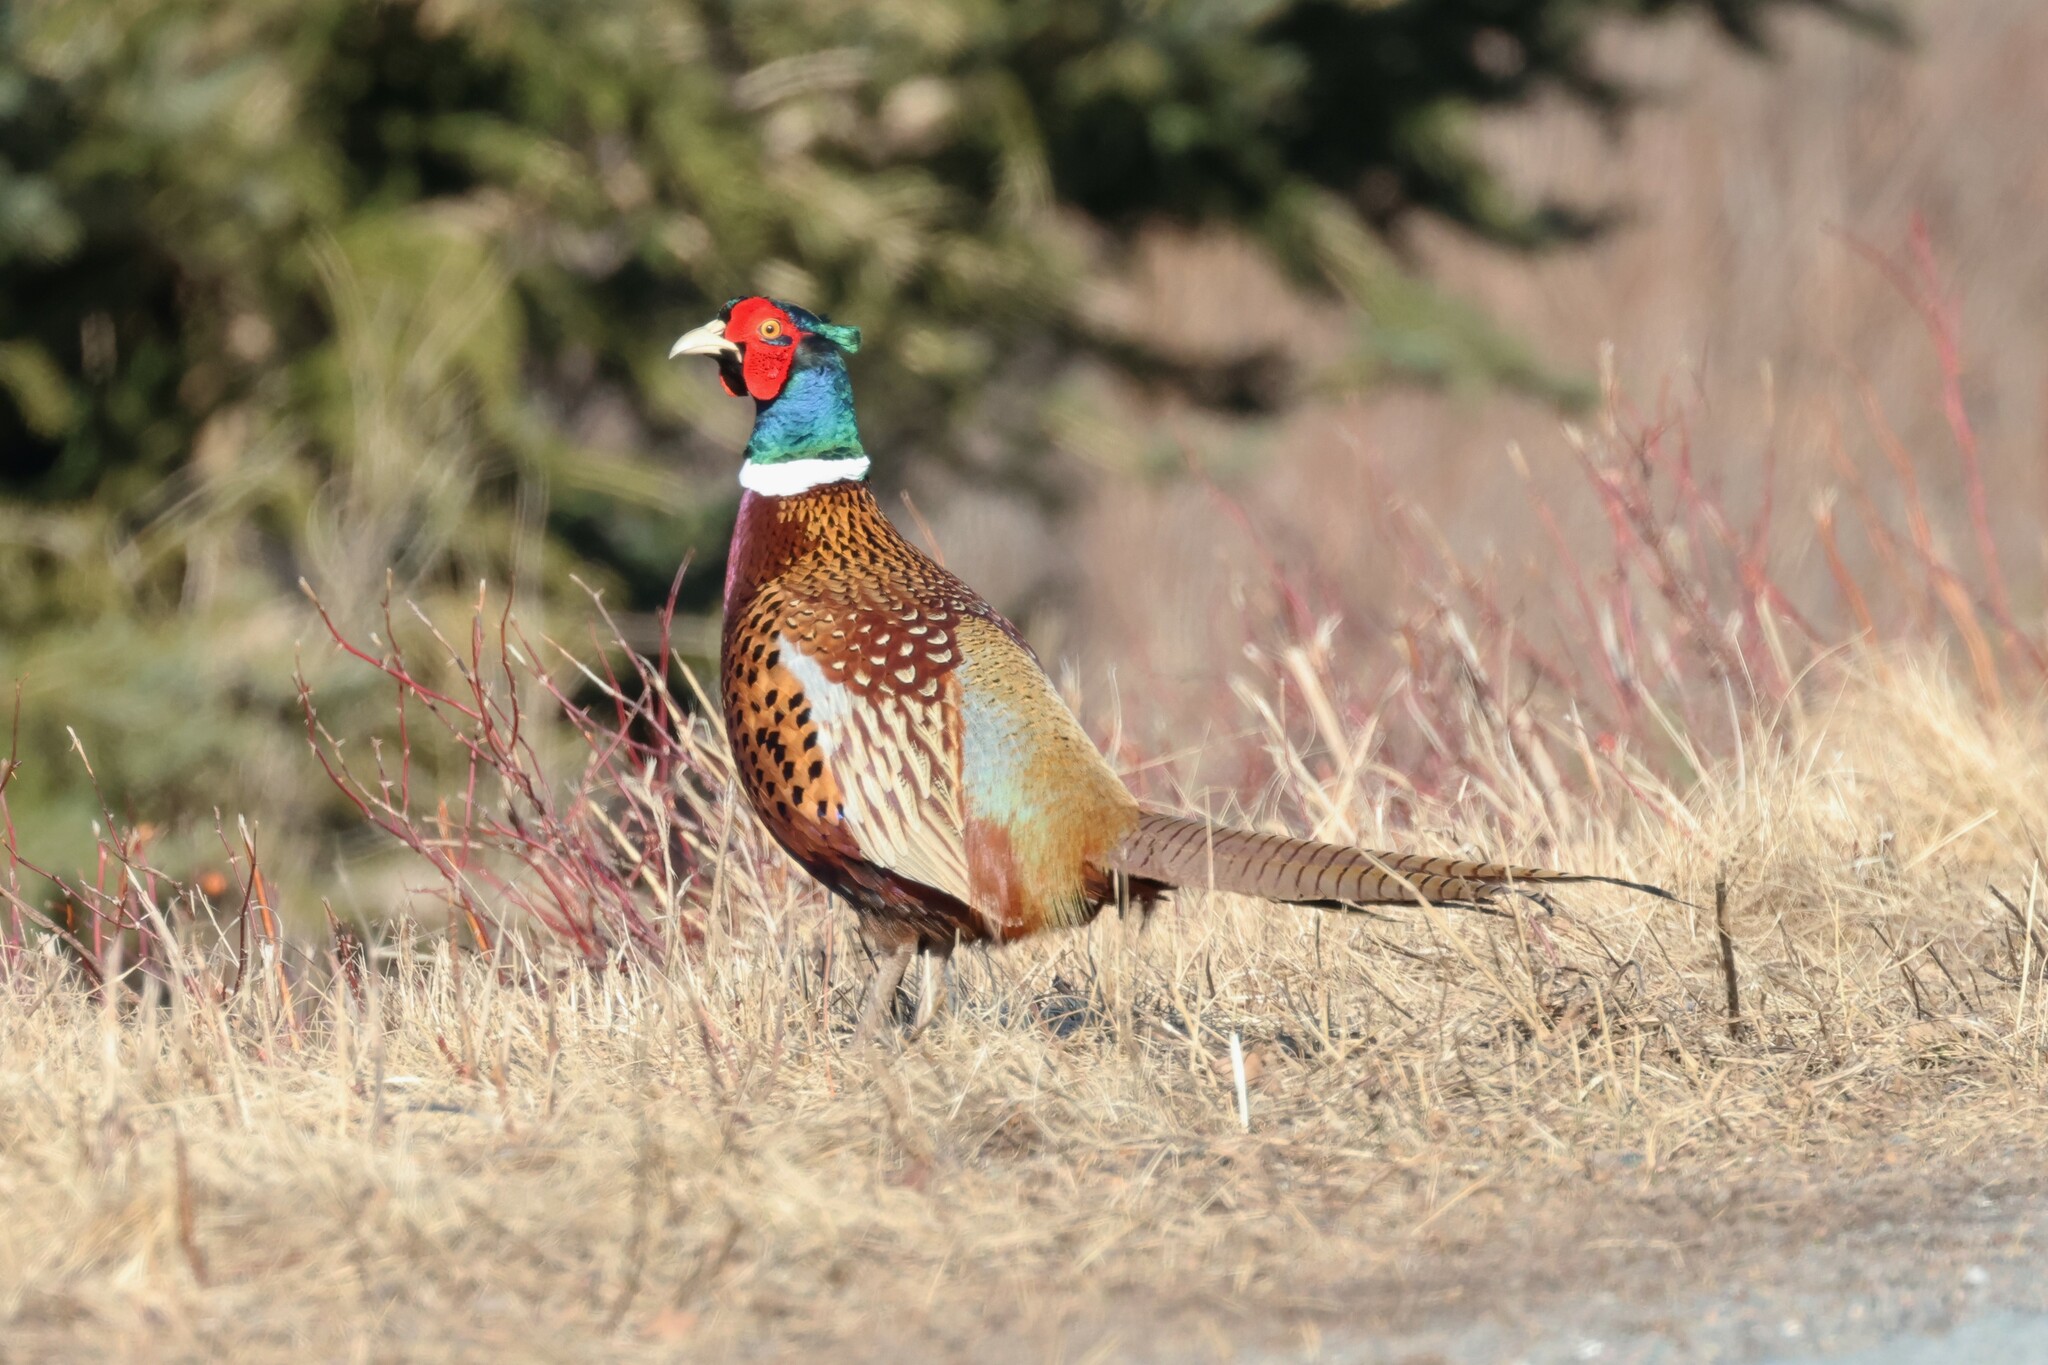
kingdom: Animalia
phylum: Chordata
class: Aves
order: Galliformes
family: Phasianidae
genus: Phasianus
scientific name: Phasianus colchicus
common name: Common pheasant
